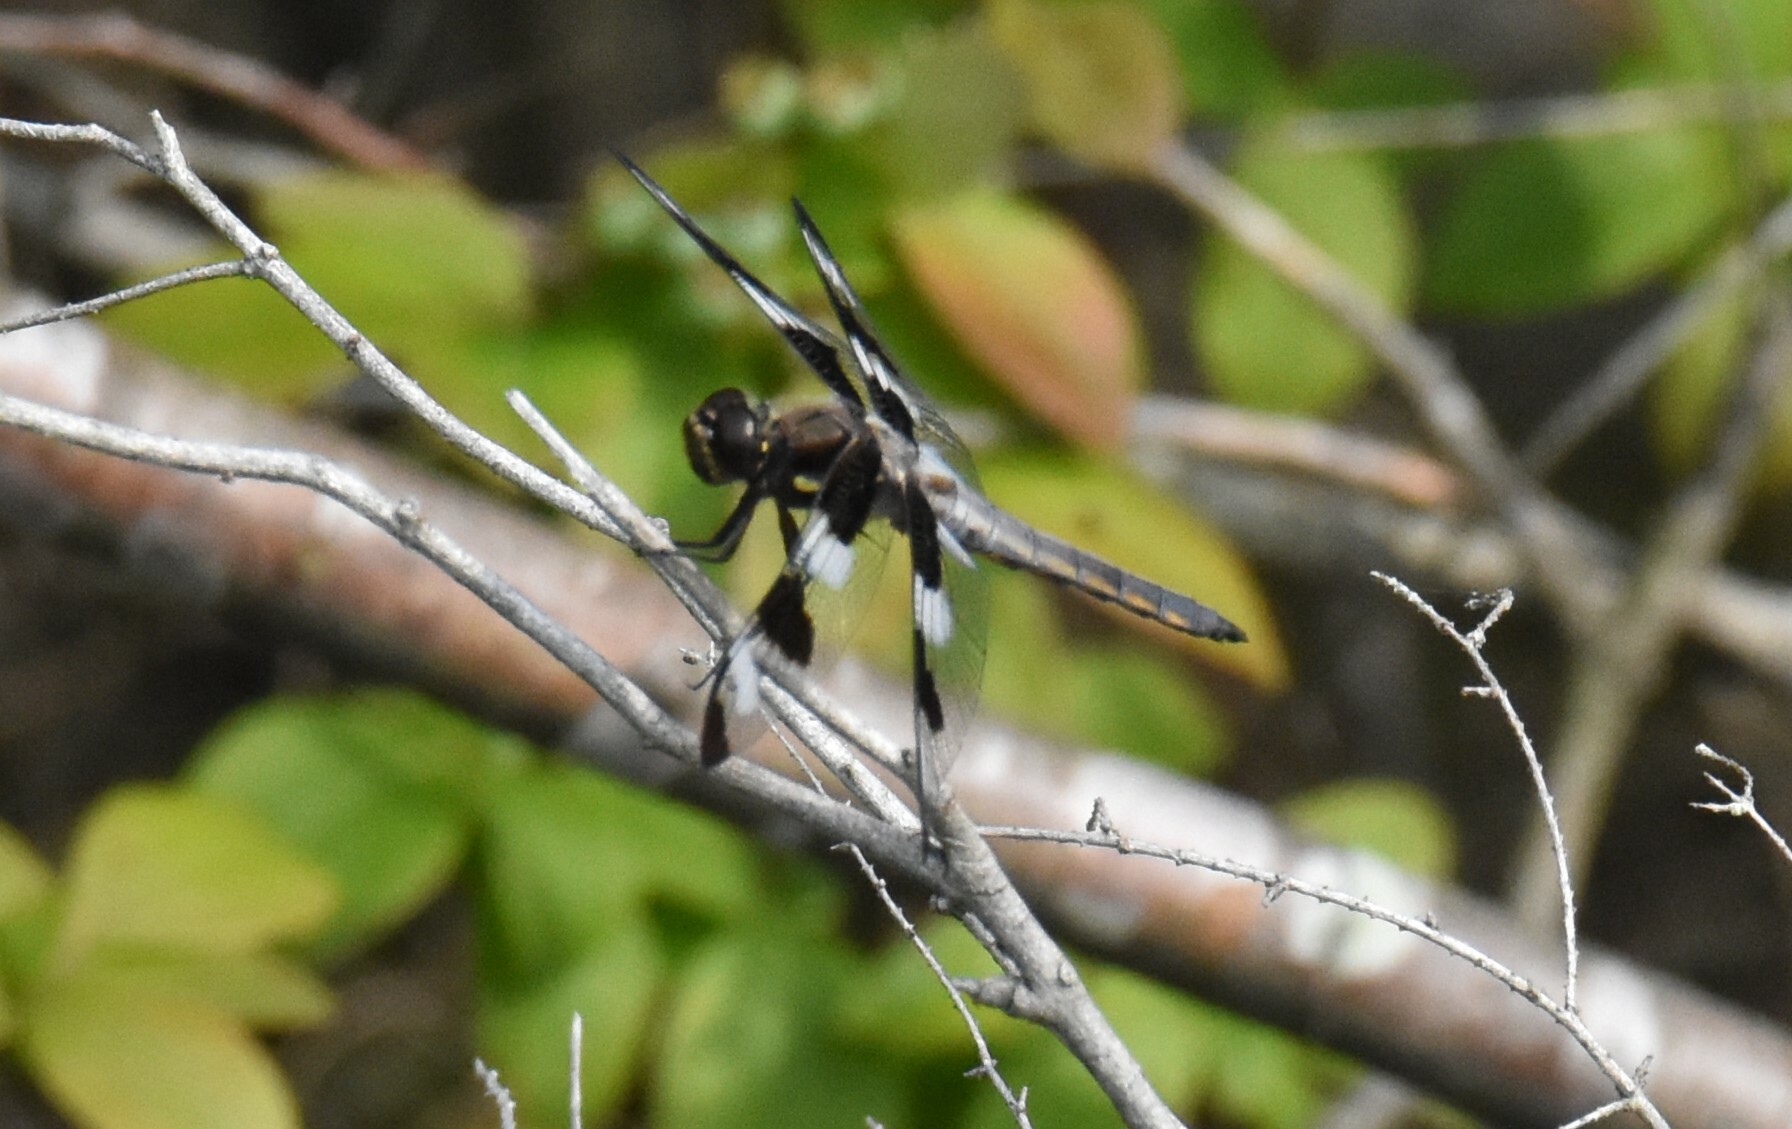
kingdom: Animalia
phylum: Arthropoda
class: Insecta
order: Odonata
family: Libellulidae
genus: Libellula
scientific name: Libellula pulchella
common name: Twelve-spotted skimmer
